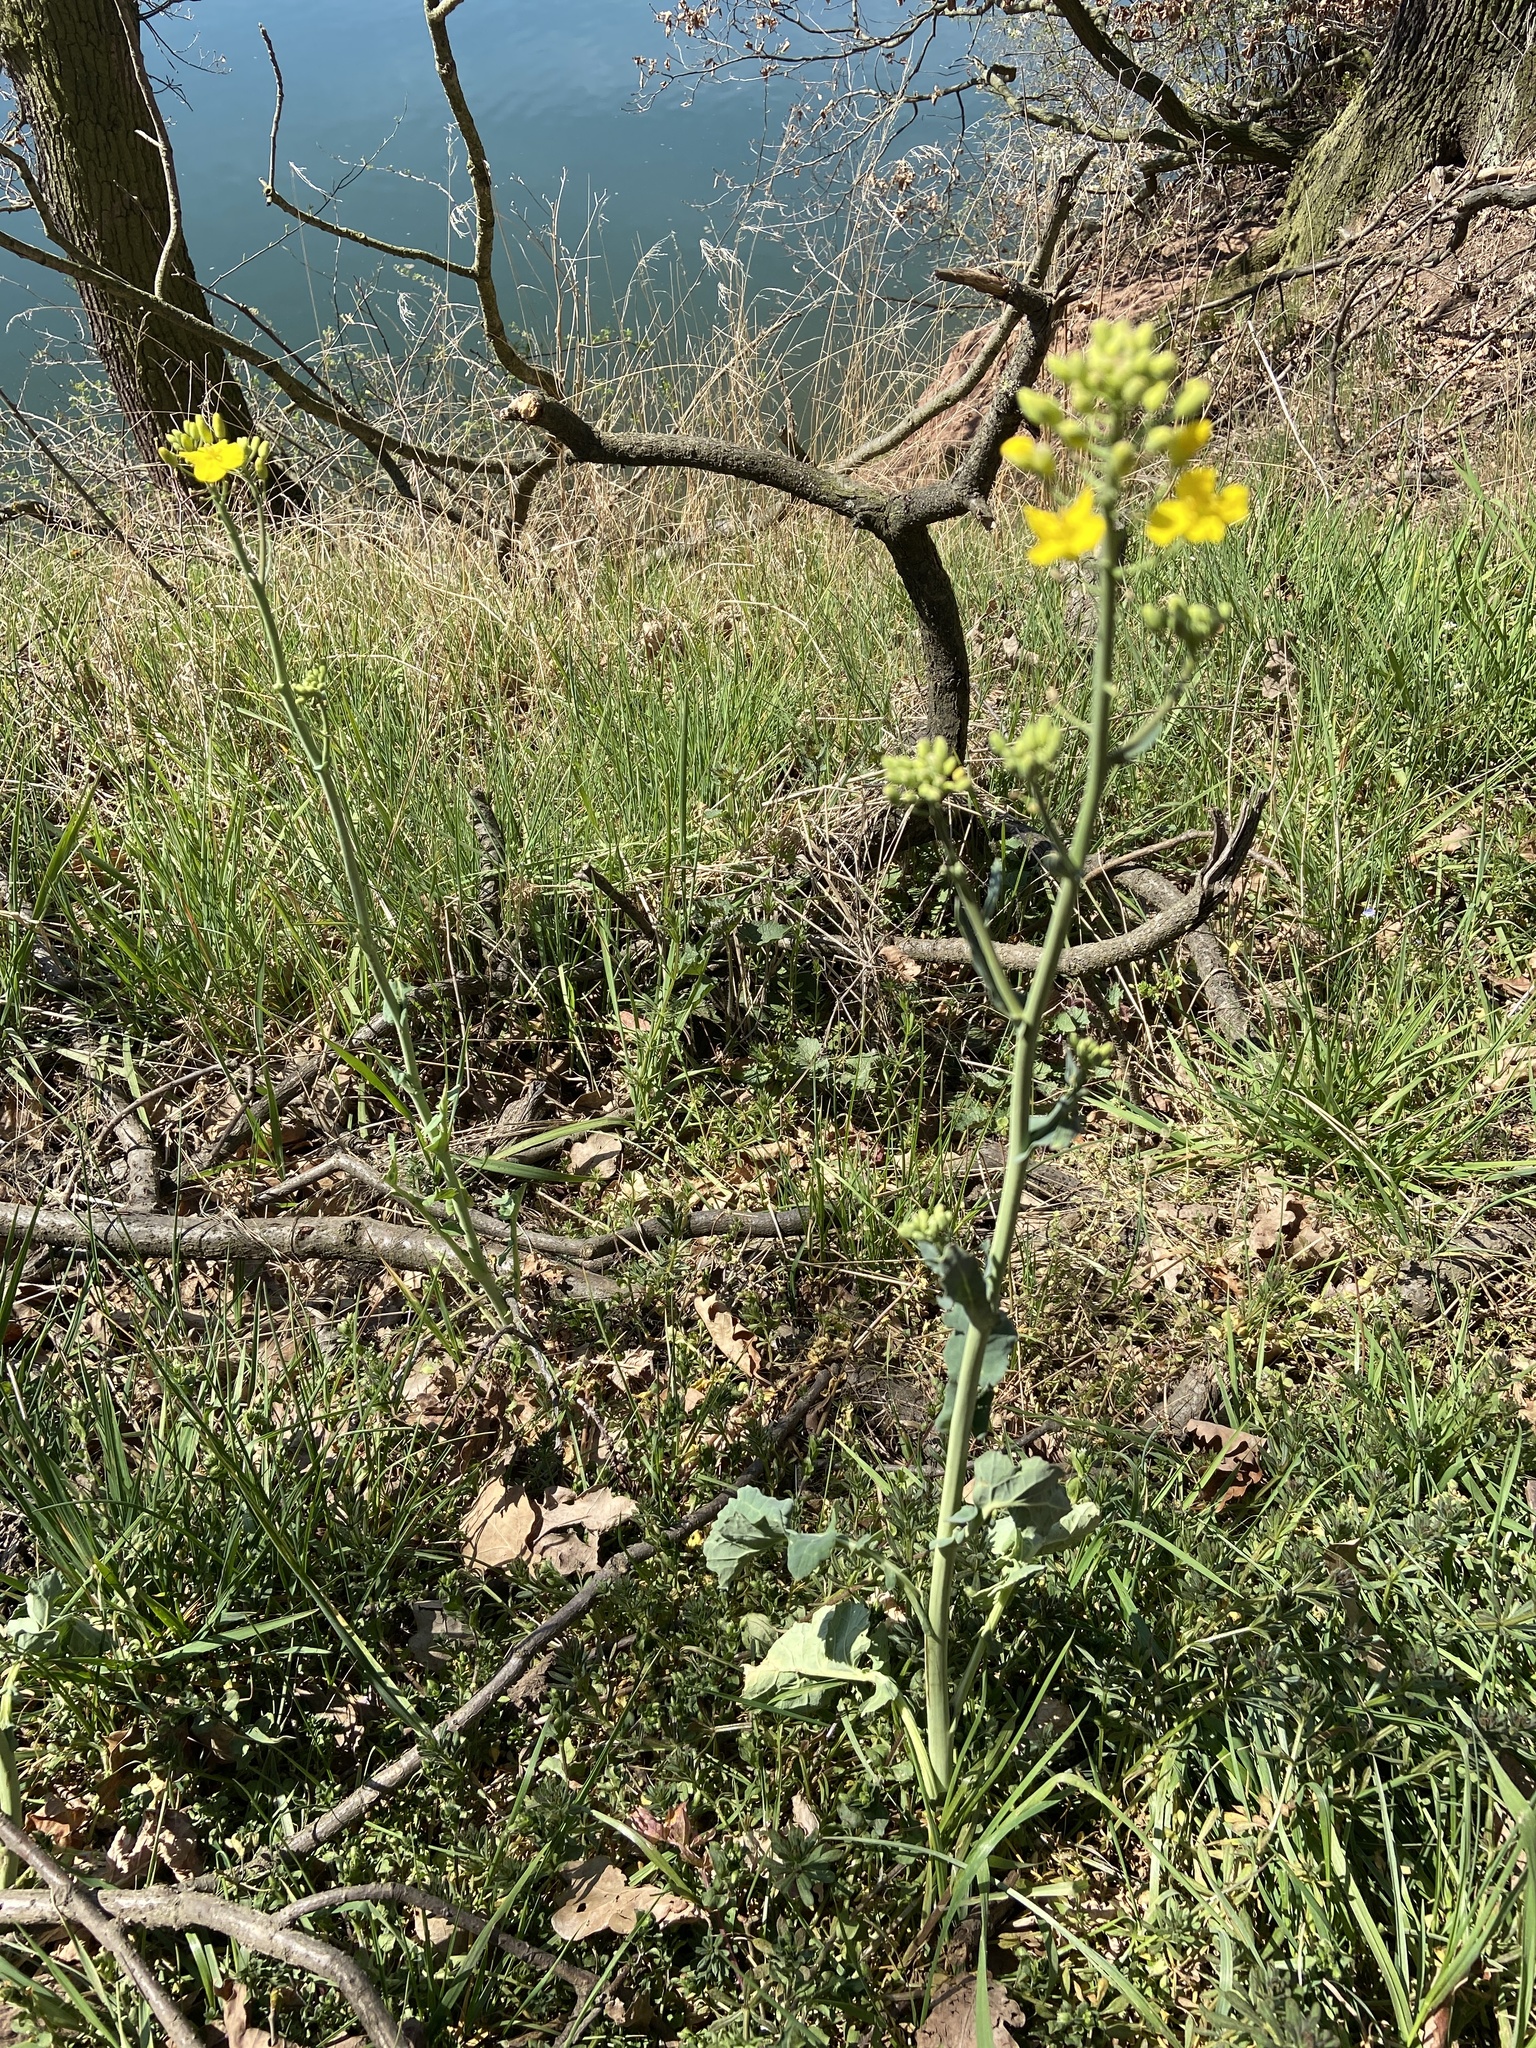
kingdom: Plantae
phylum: Tracheophyta
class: Magnoliopsida
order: Brassicales
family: Brassicaceae
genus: Brassica
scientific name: Brassica napus
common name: Rape
